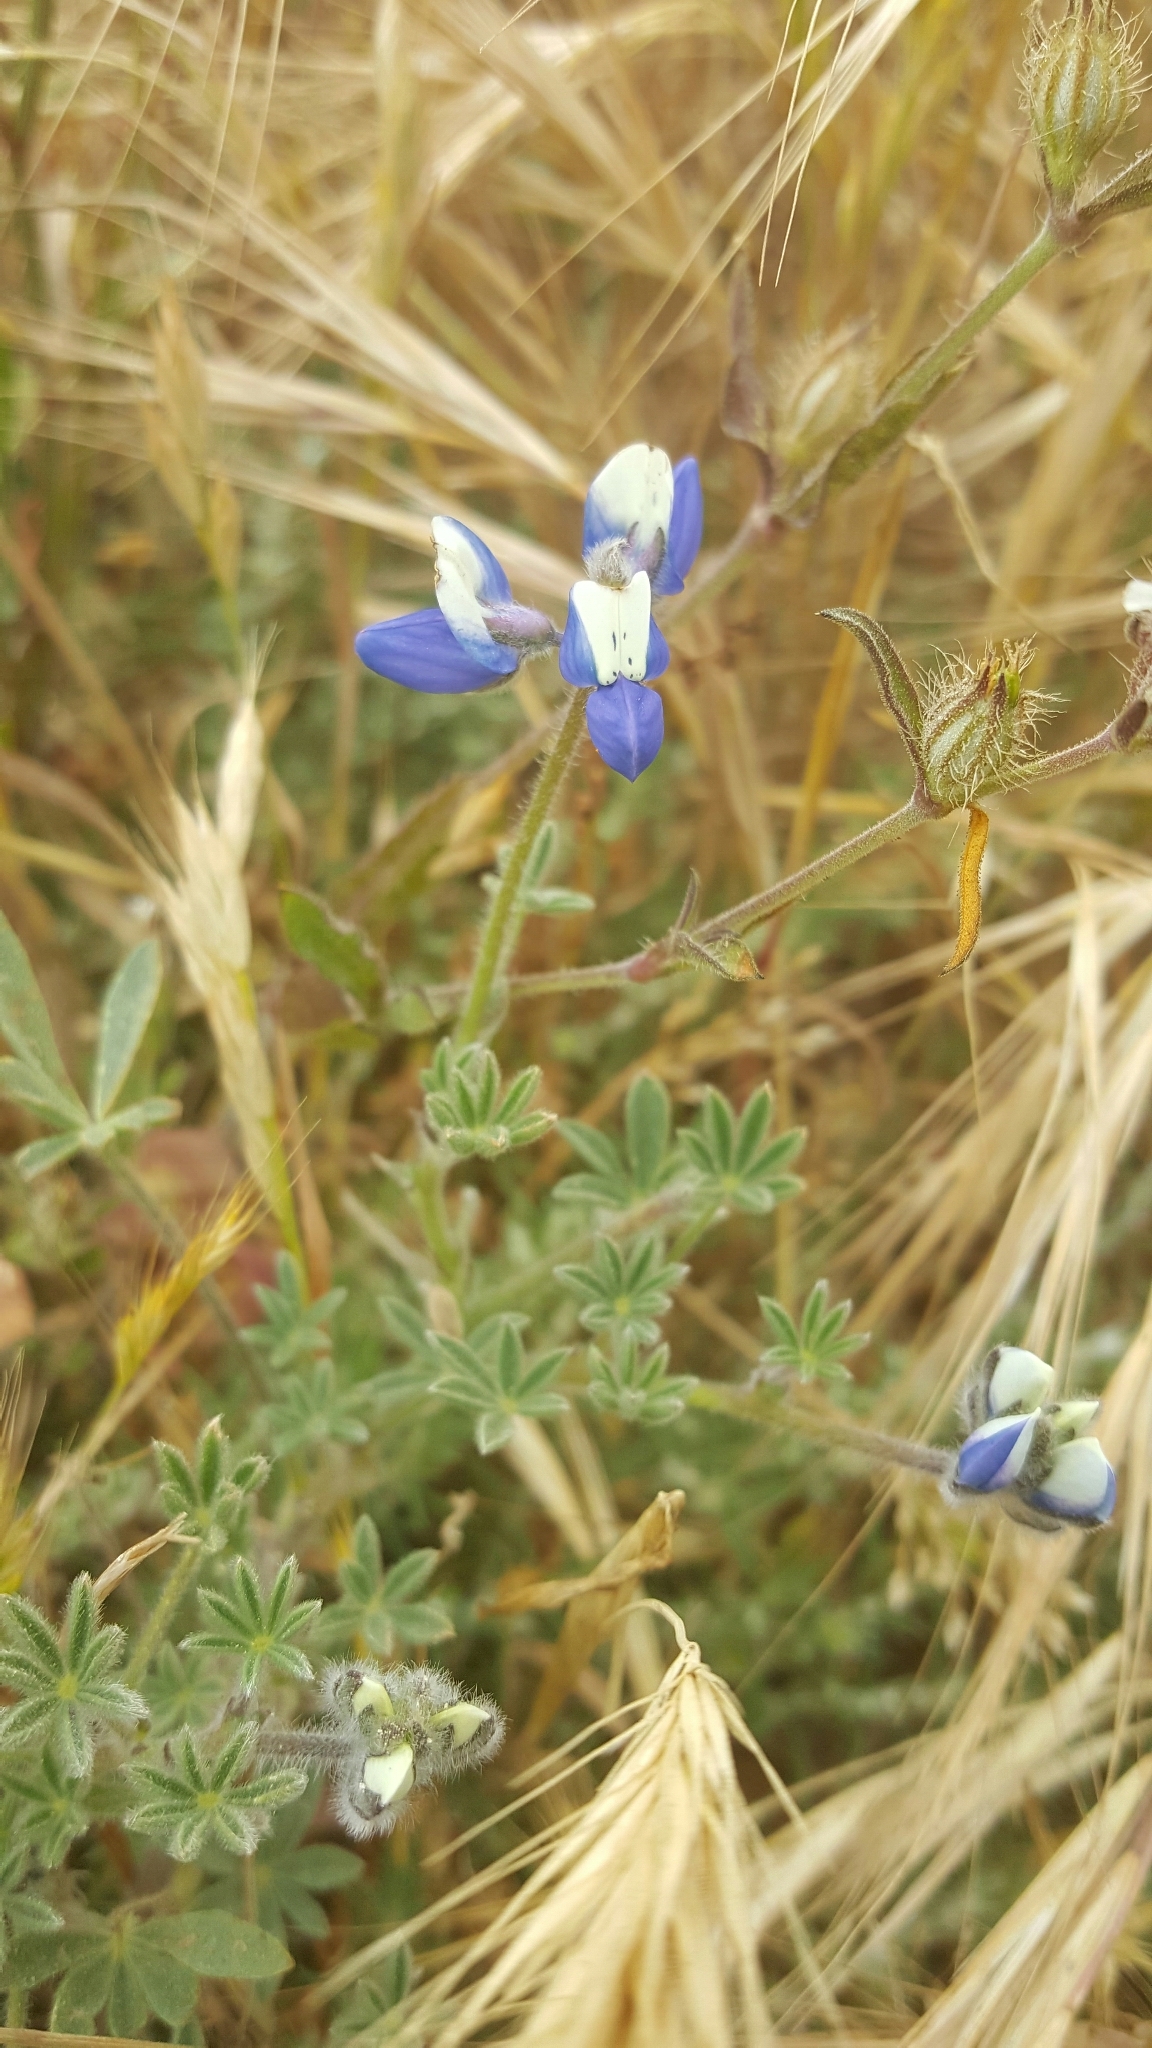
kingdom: Plantae
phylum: Tracheophyta
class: Magnoliopsida
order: Fabales
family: Fabaceae
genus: Lupinus
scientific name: Lupinus bicolor
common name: Miniature lupine
